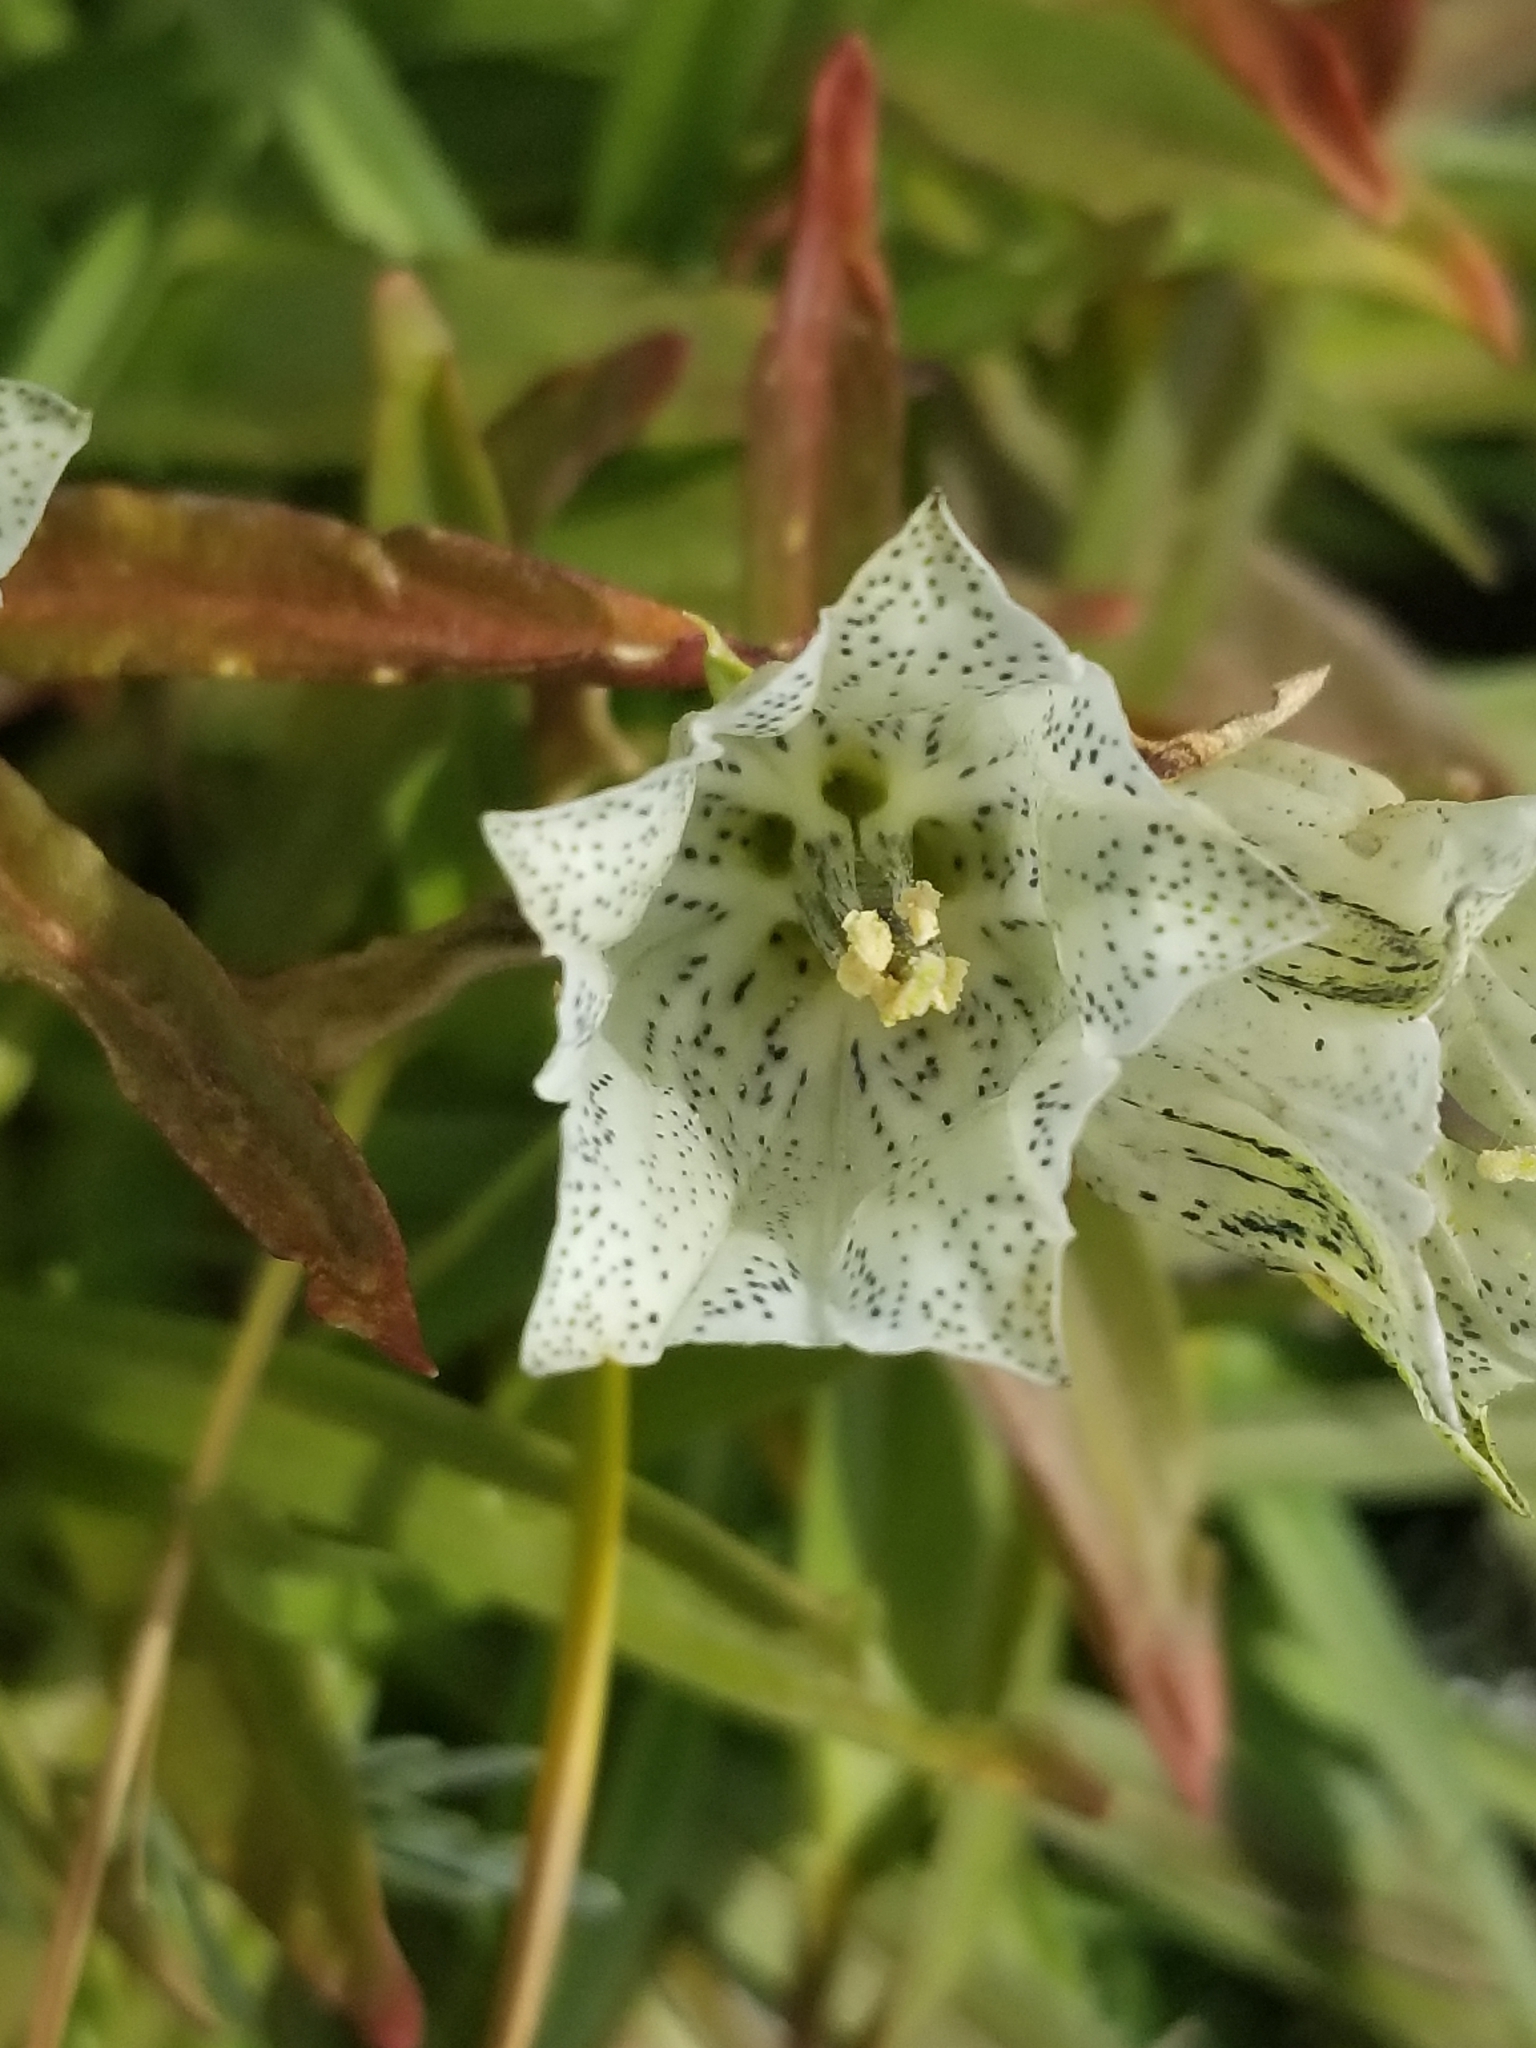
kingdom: Plantae
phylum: Tracheophyta
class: Magnoliopsida
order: Gentianales
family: Gentianaceae
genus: Gentiana
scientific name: Gentiana algida
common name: Arctic gentian
